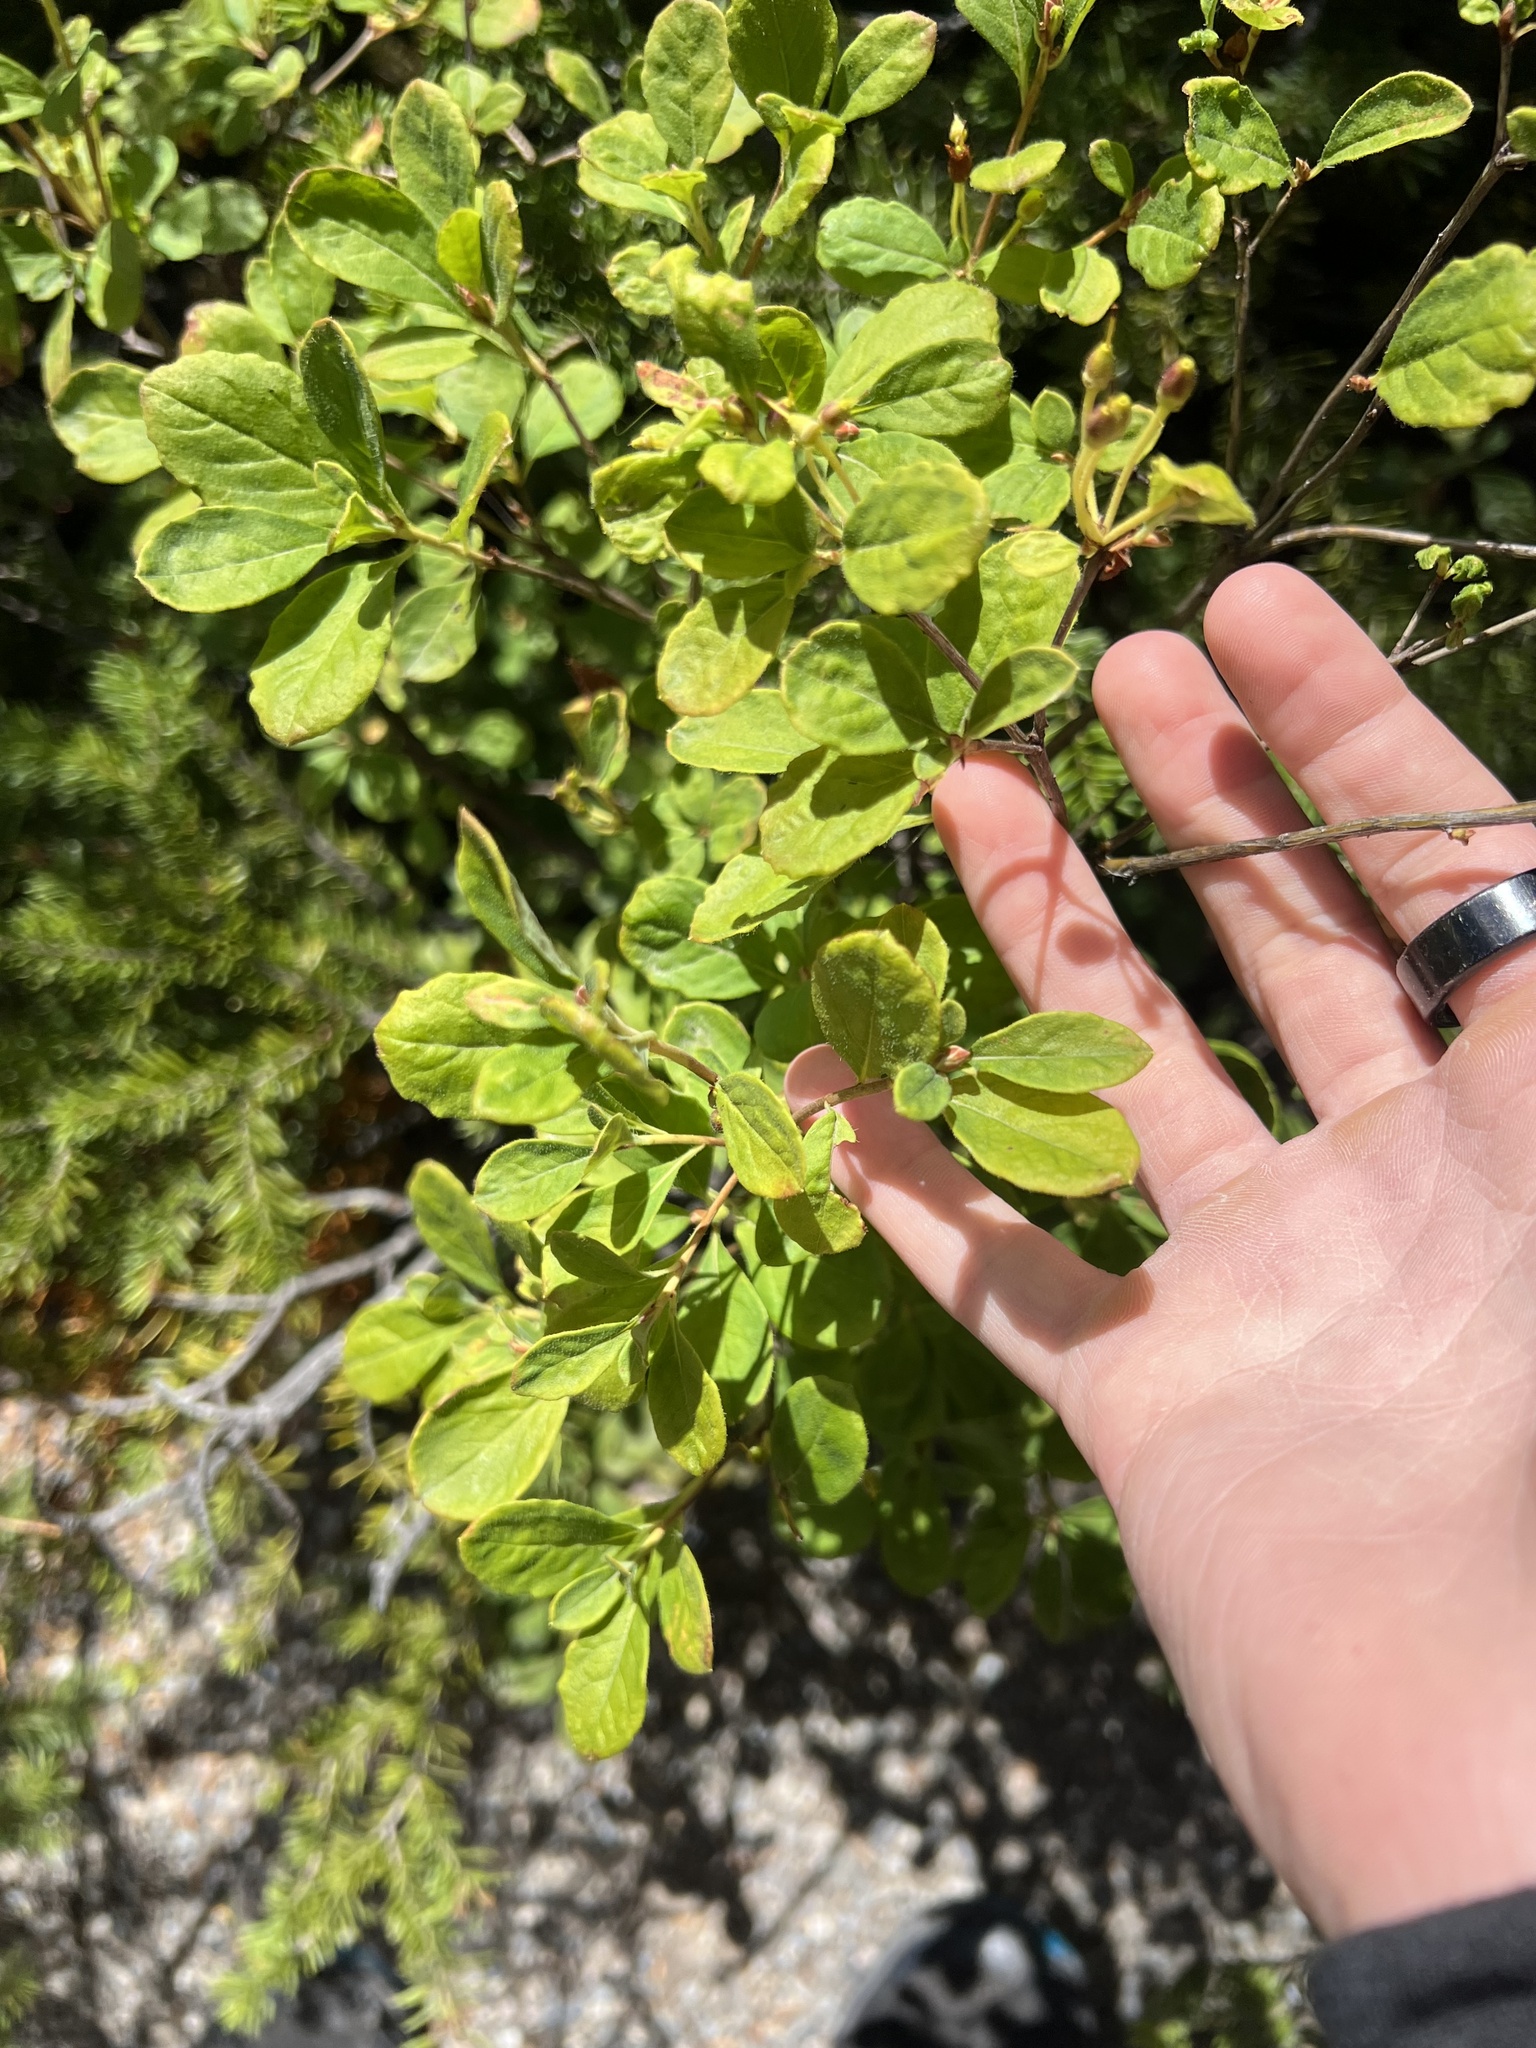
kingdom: Plantae
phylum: Tracheophyta
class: Magnoliopsida
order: Ericales
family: Ericaceae
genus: Rhododendron
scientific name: Rhododendron menziesii
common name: Pacific menziesia
